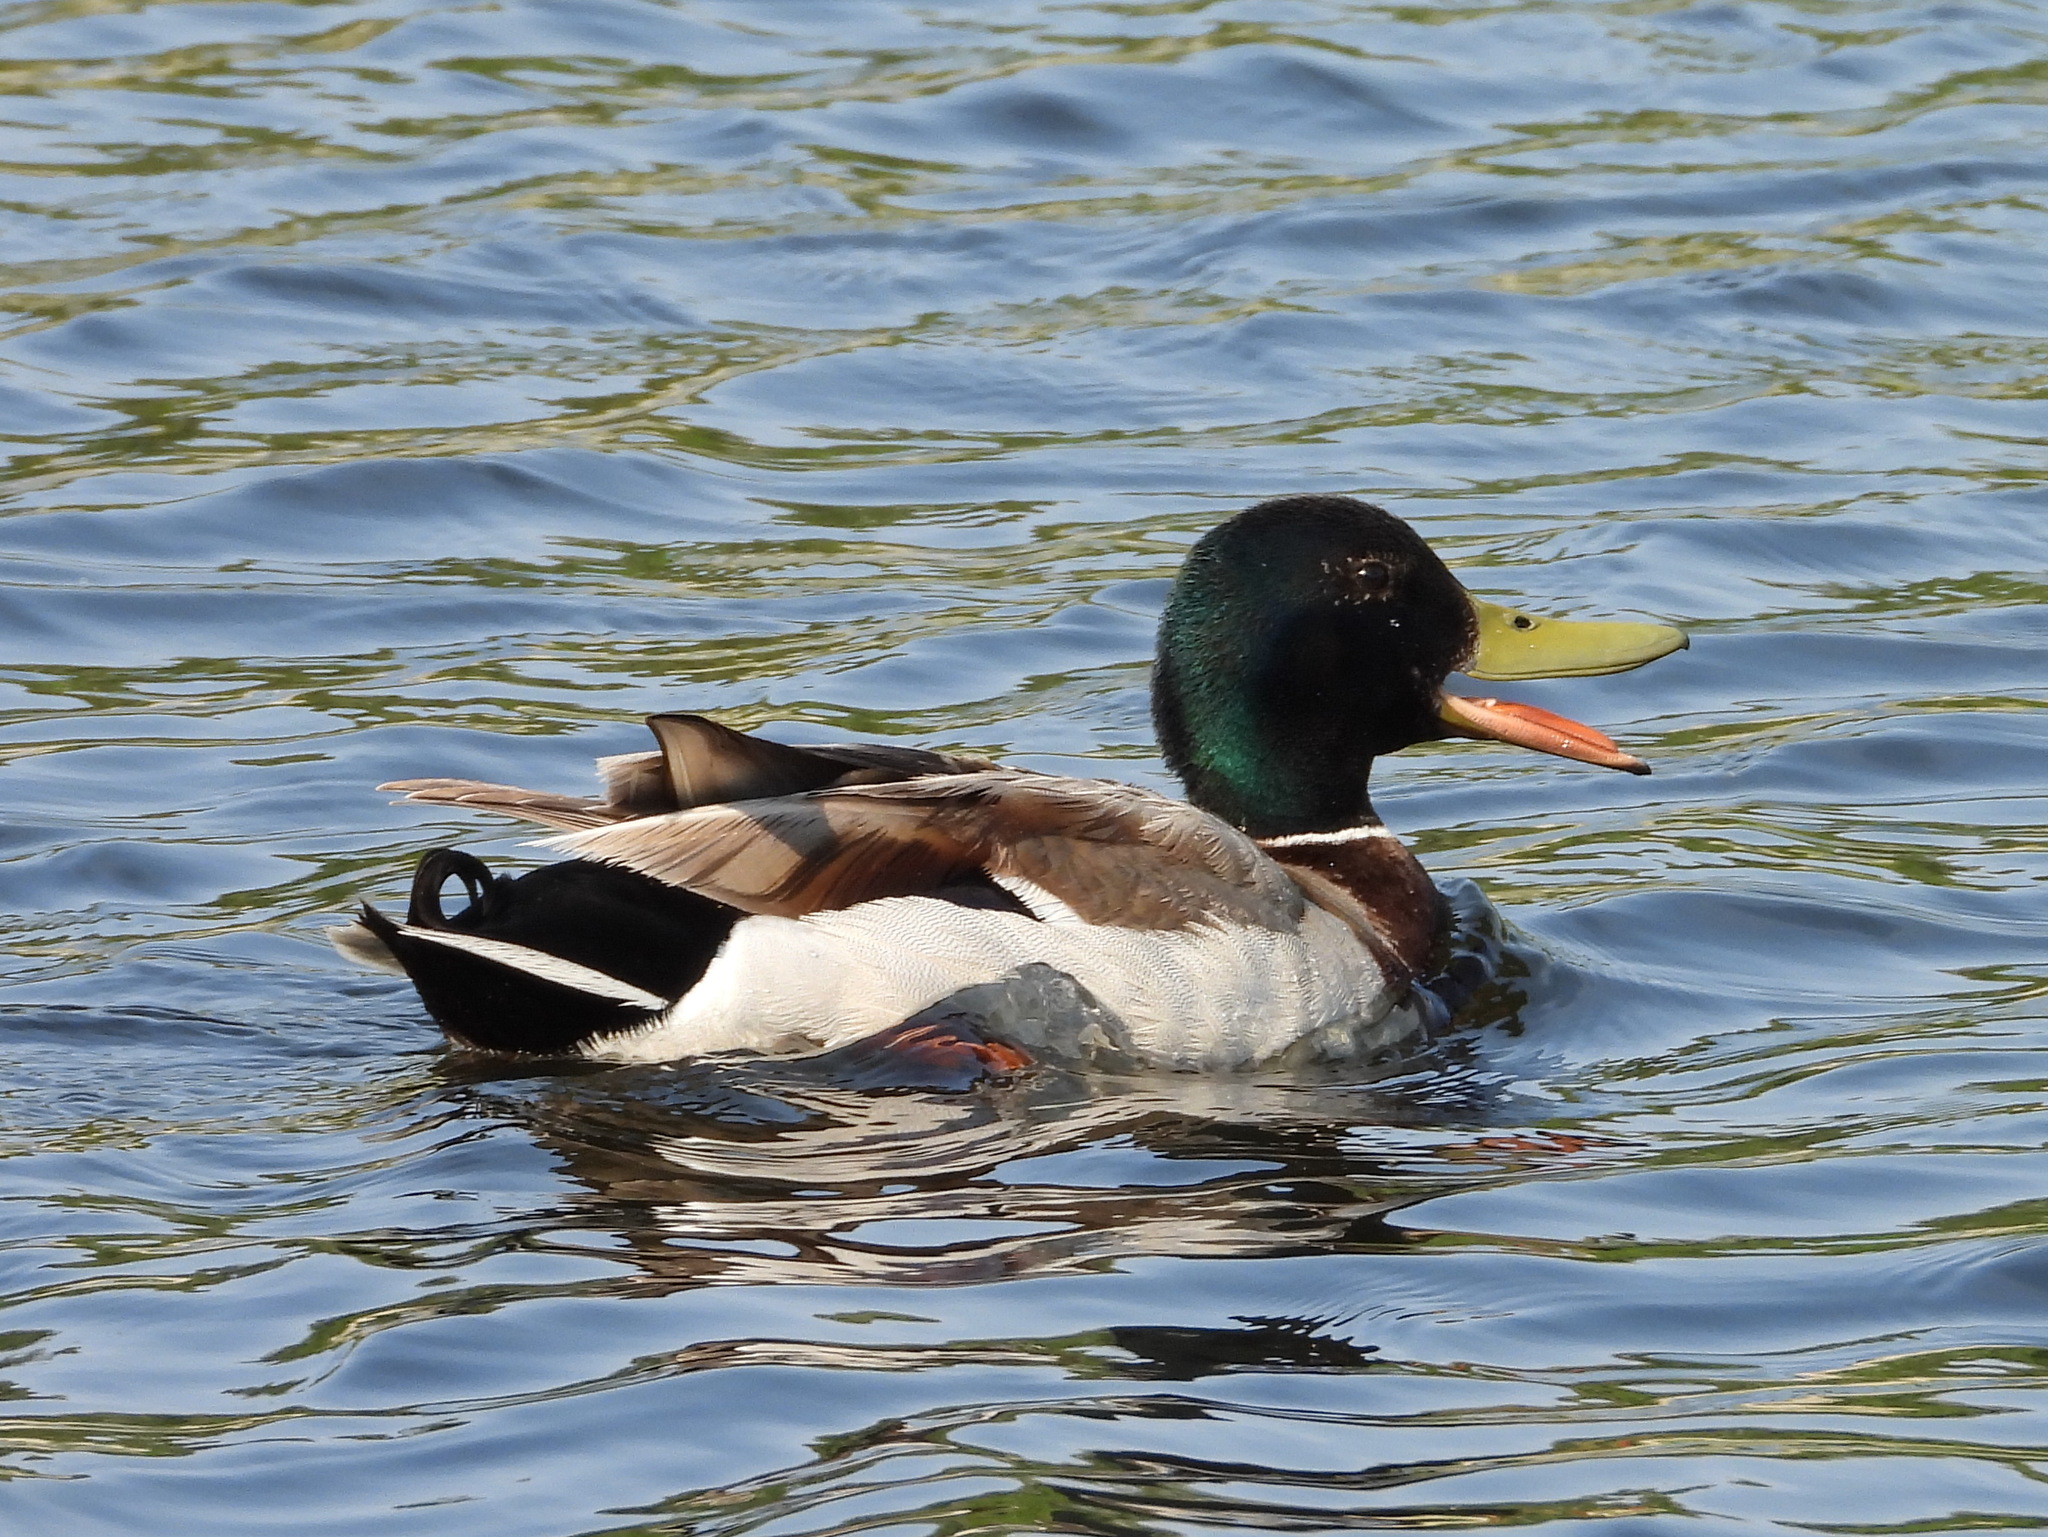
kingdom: Animalia
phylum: Chordata
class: Aves
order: Anseriformes
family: Anatidae
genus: Anas
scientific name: Anas platyrhynchos
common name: Mallard
